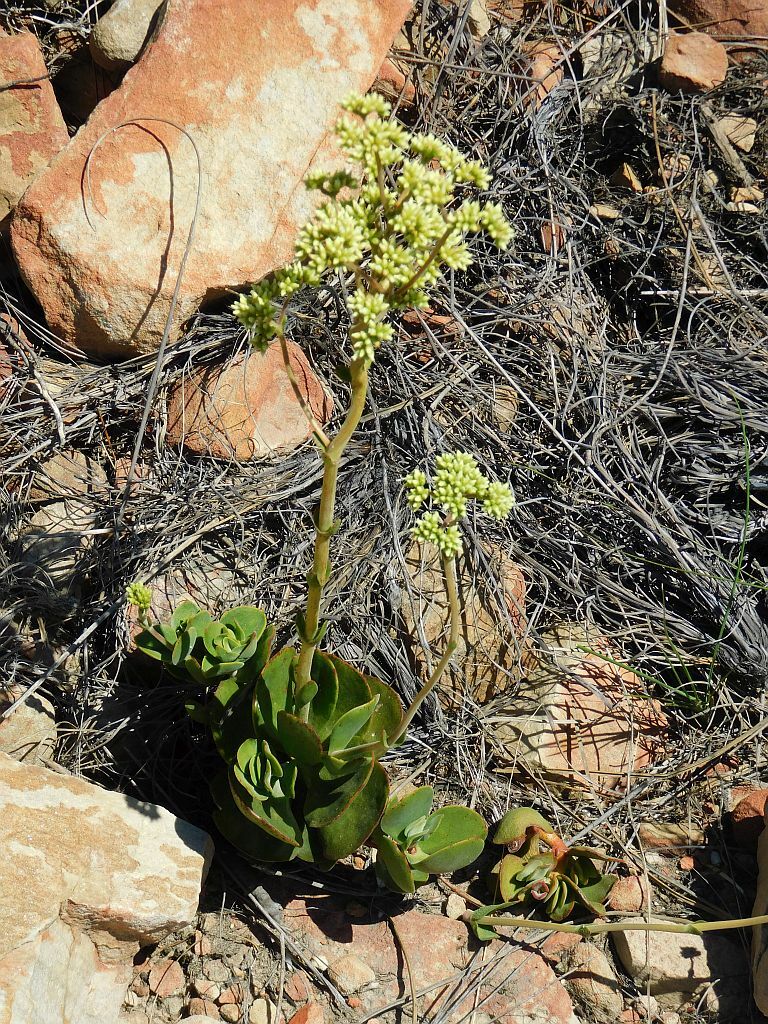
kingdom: Plantae
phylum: Tracheophyta
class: Magnoliopsida
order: Saxifragales
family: Crassulaceae
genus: Crassula
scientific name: Crassula atropurpurea
